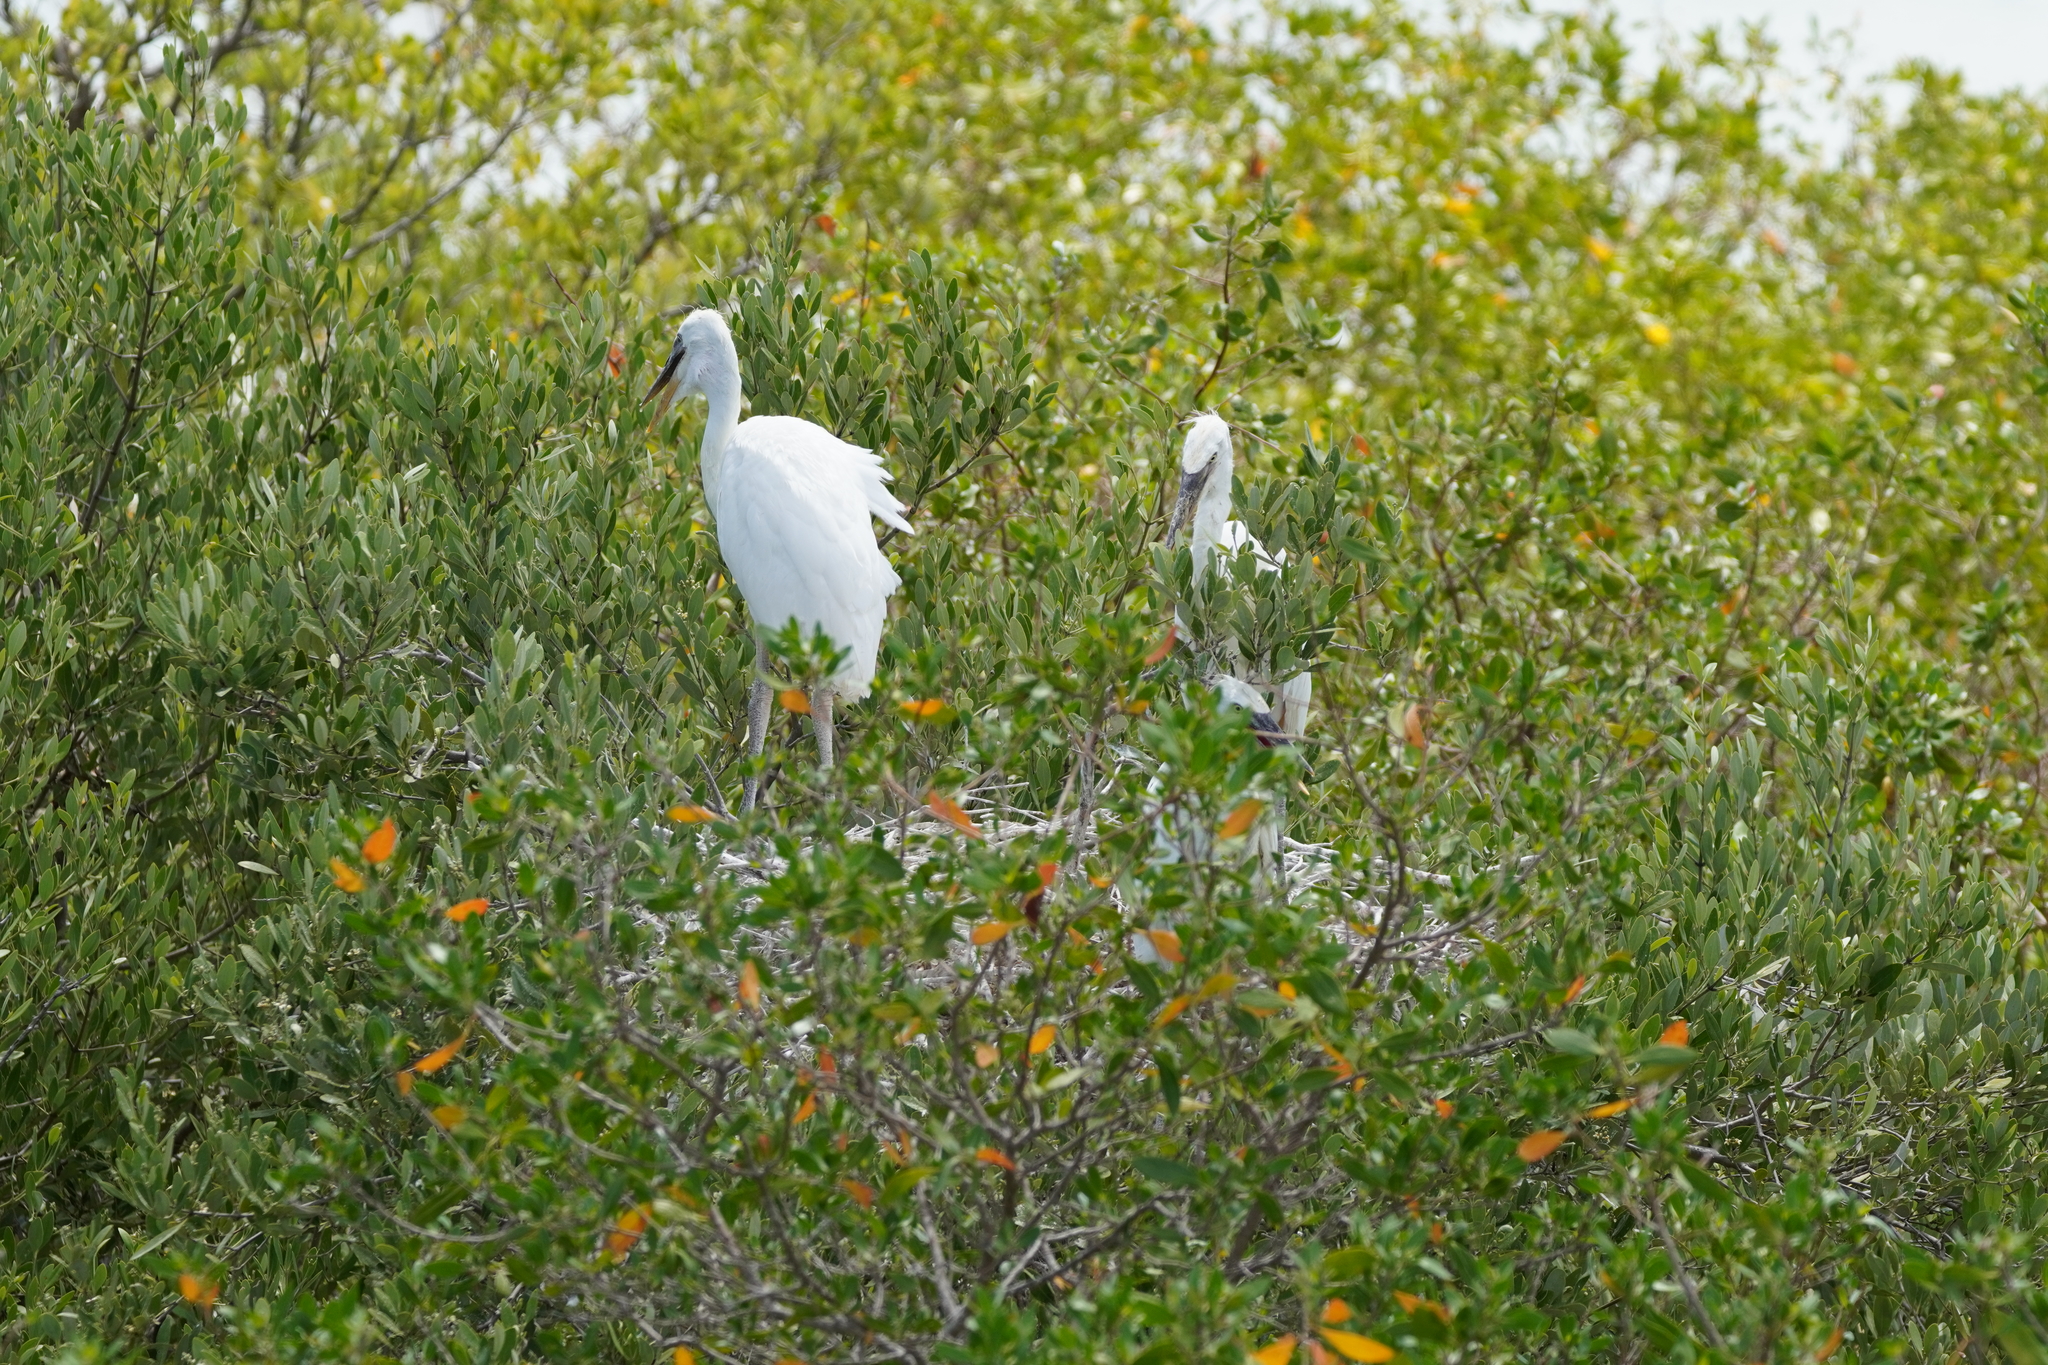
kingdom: Animalia
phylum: Chordata
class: Aves
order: Pelecaniformes
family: Ardeidae
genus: Ardea
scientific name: Ardea herodias
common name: Great blue heron
